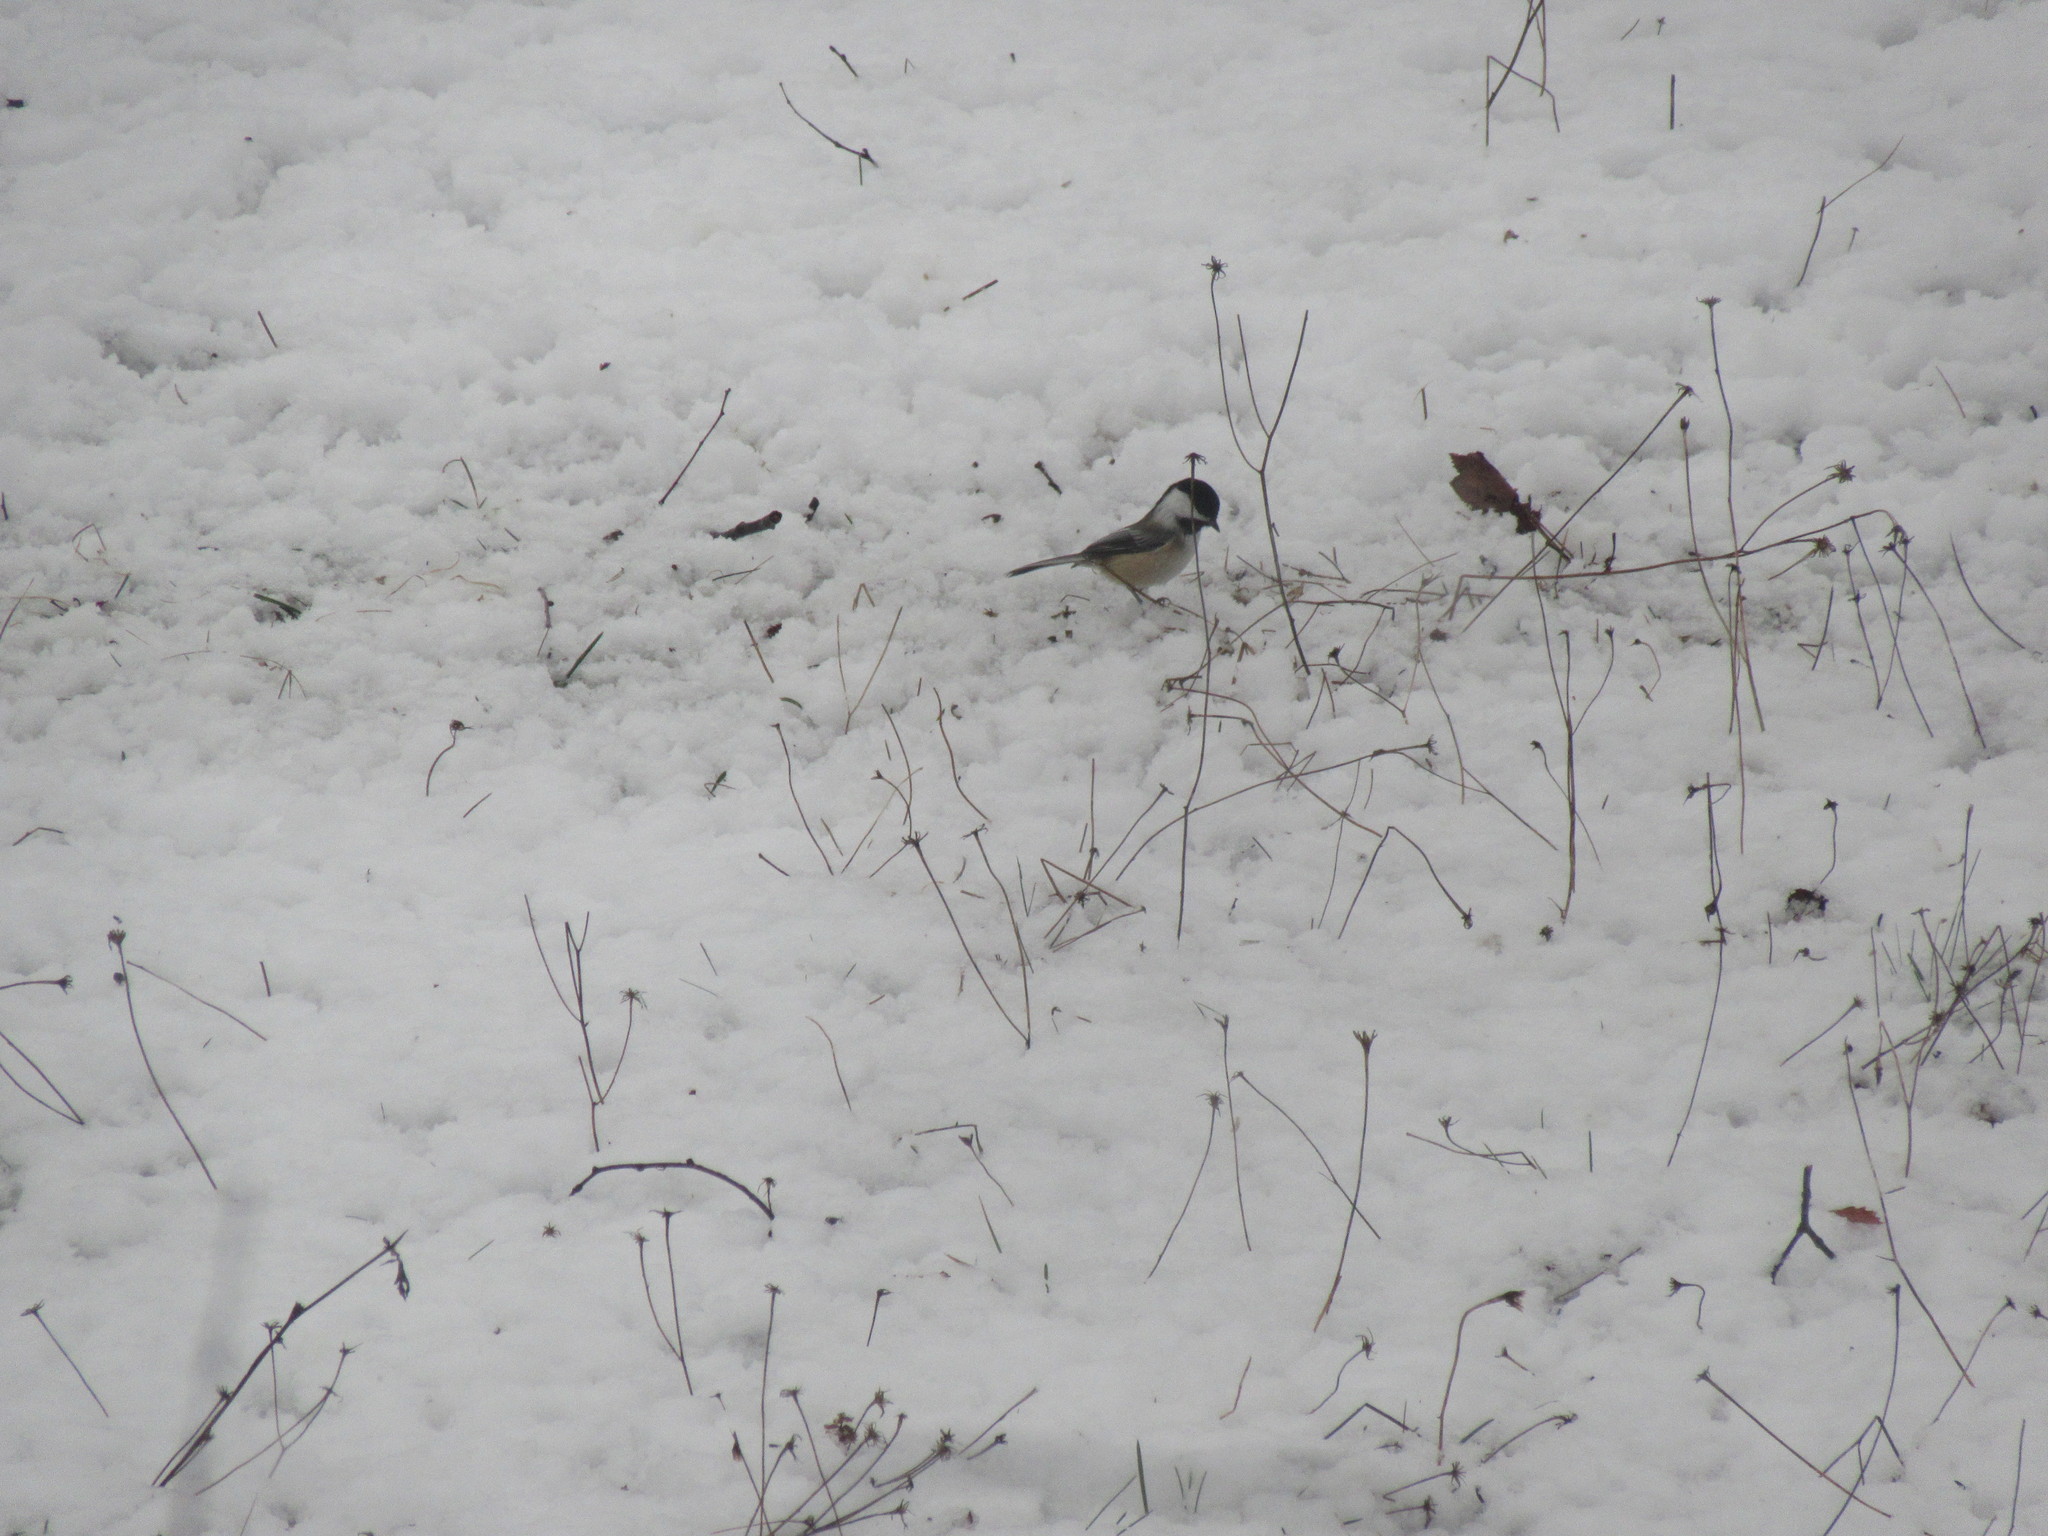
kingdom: Animalia
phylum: Chordata
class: Aves
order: Passeriformes
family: Paridae
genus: Poecile
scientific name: Poecile atricapillus
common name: Black-capped chickadee
